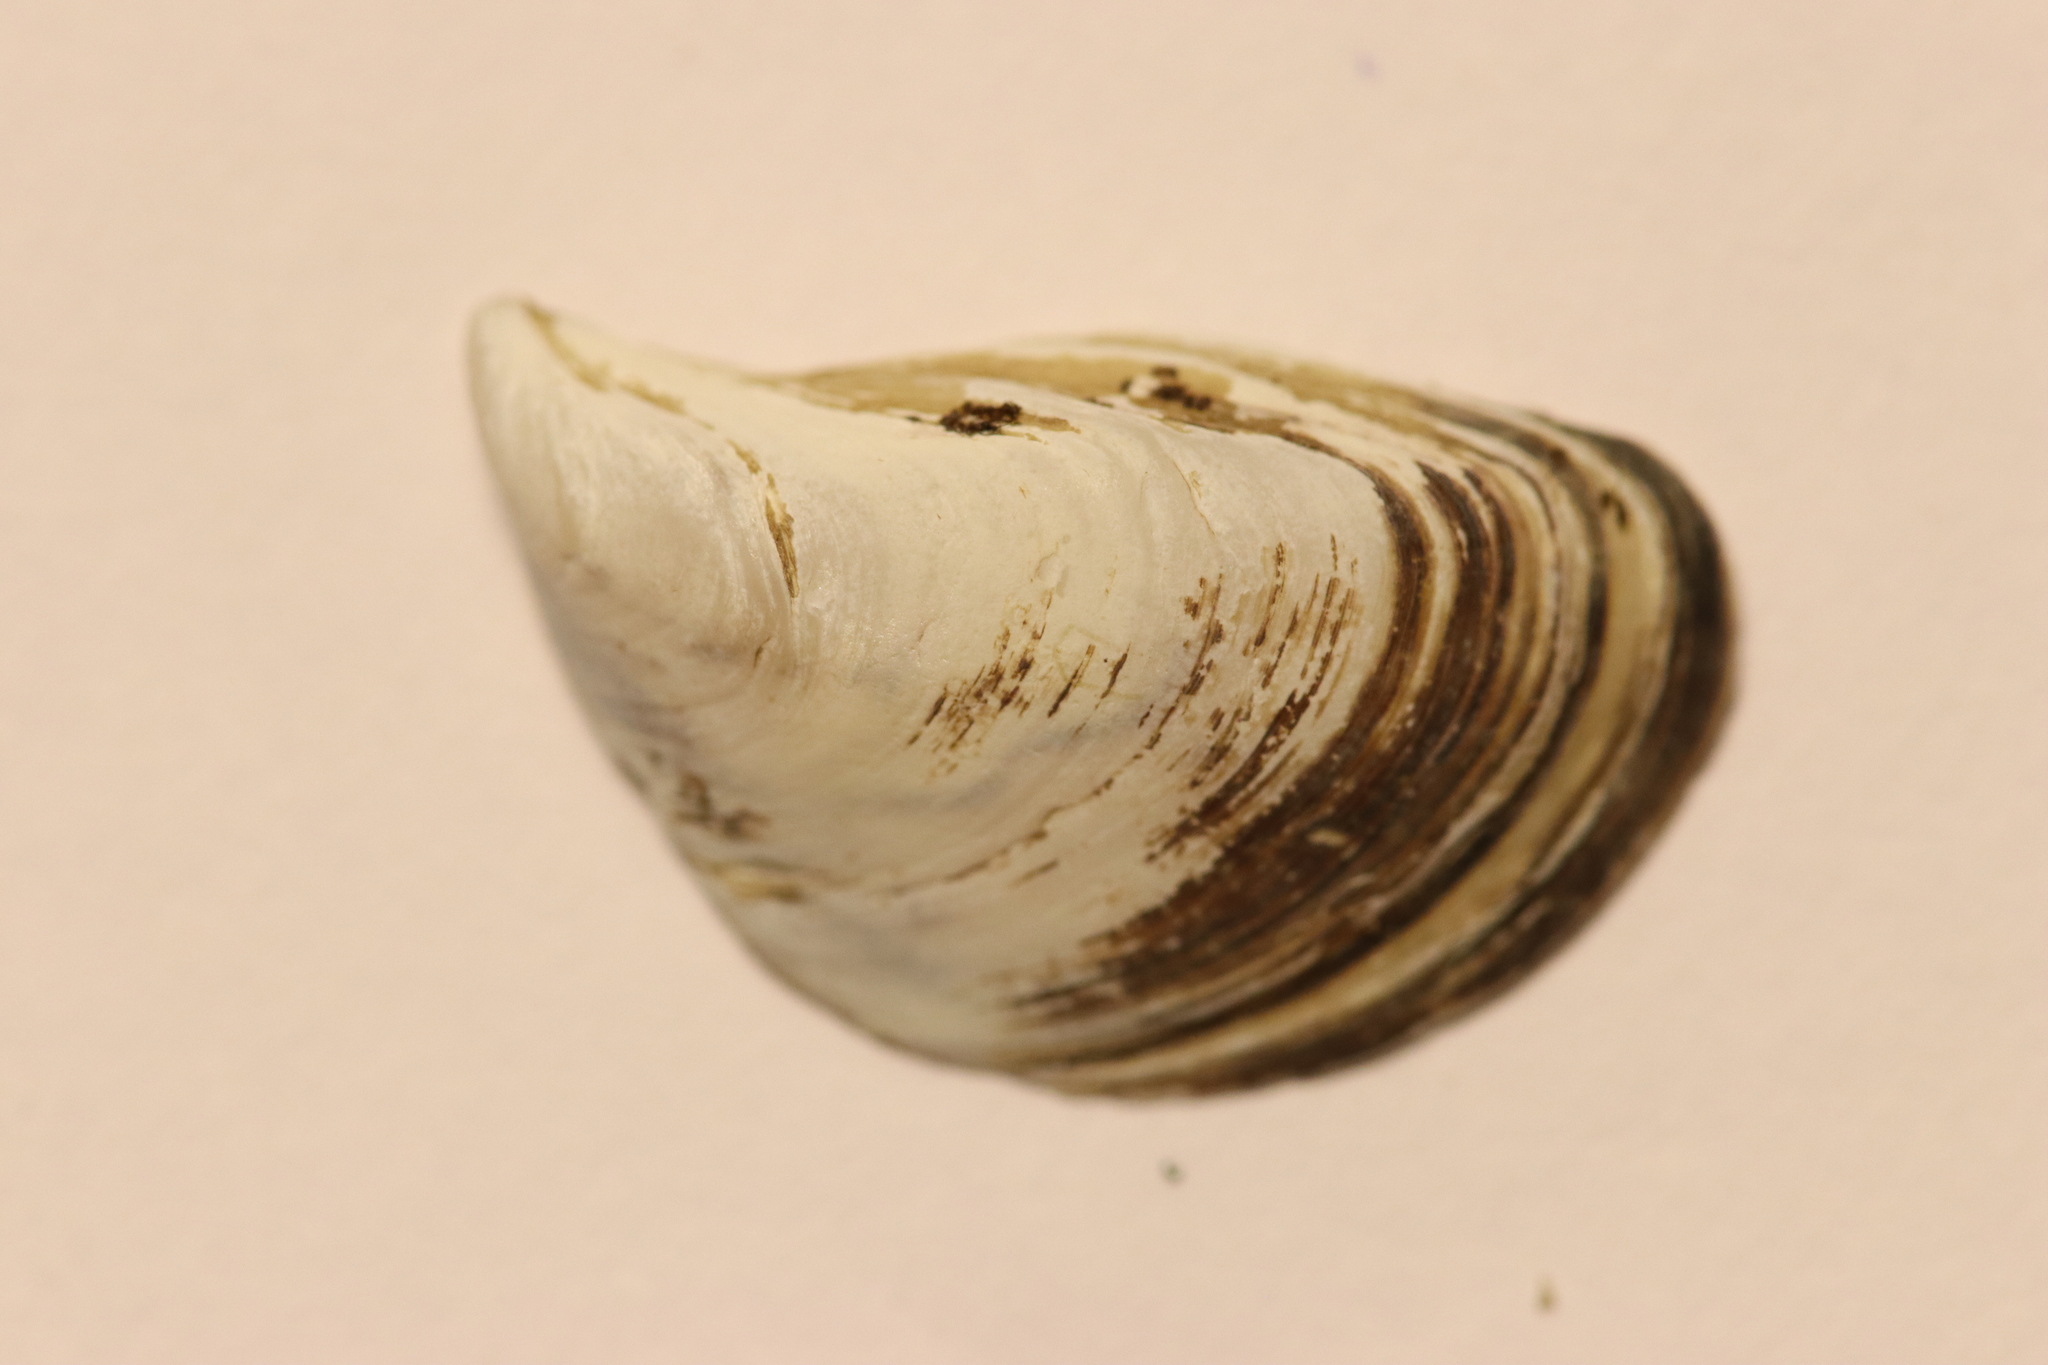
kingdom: Animalia
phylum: Mollusca
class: Bivalvia
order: Myida
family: Dreissenidae
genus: Dreissena
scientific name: Dreissena bugensis
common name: Quagga mussel
